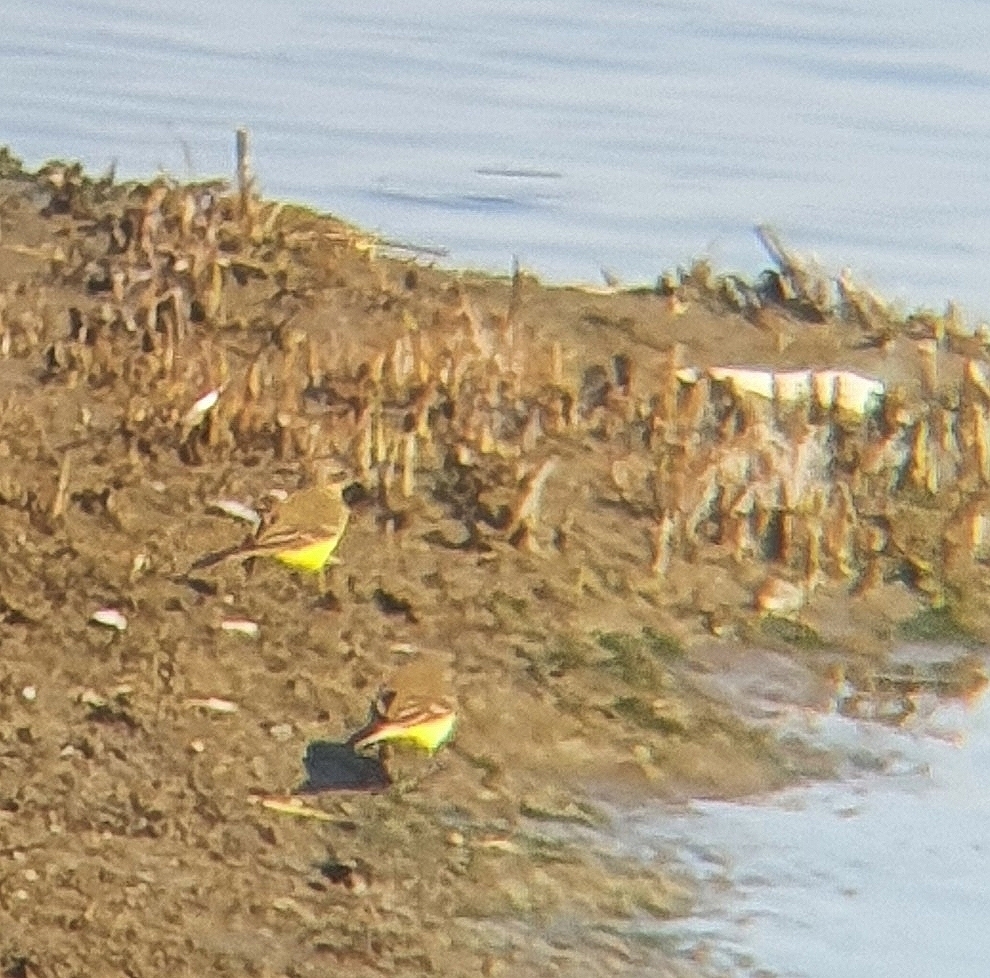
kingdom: Animalia
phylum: Chordata
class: Aves
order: Passeriformes
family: Motacillidae
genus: Motacilla
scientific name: Motacilla flava
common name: Western yellow wagtail
